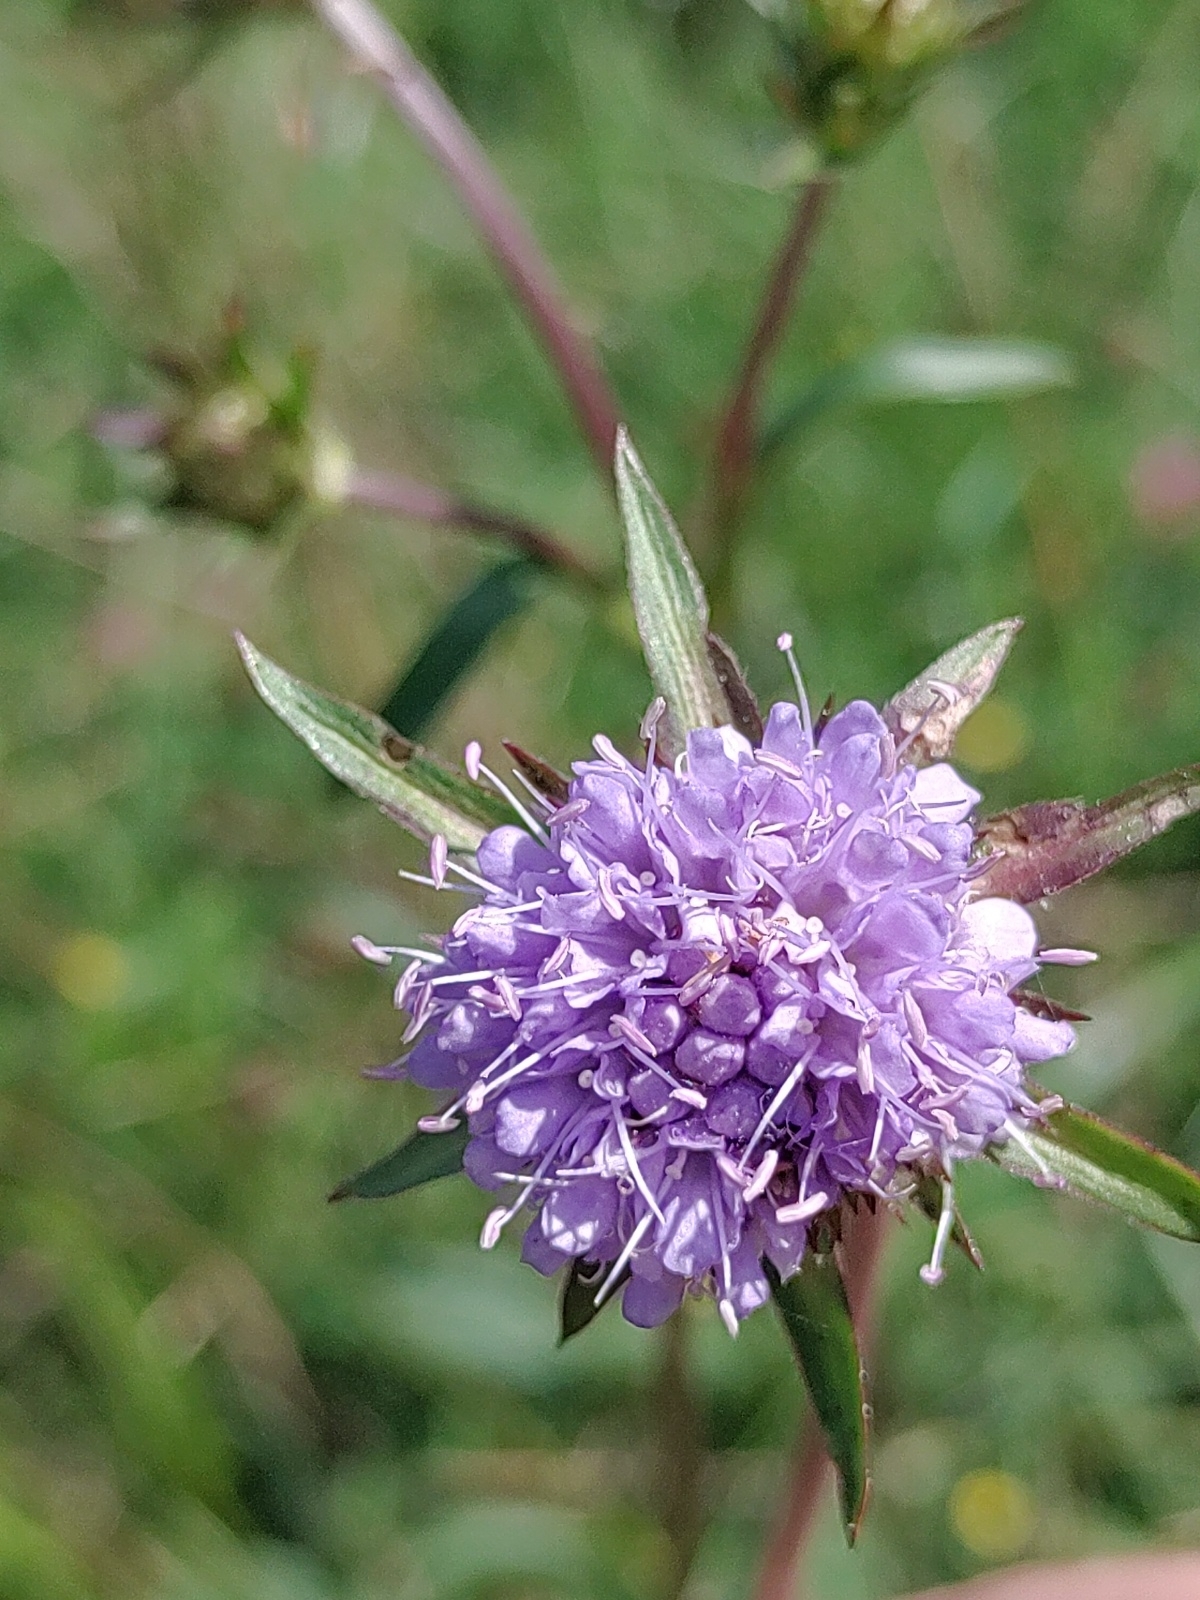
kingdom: Plantae
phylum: Tracheophyta
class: Magnoliopsida
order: Dipsacales
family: Caprifoliaceae
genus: Succisa
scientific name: Succisa pratensis
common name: Devil's-bit
